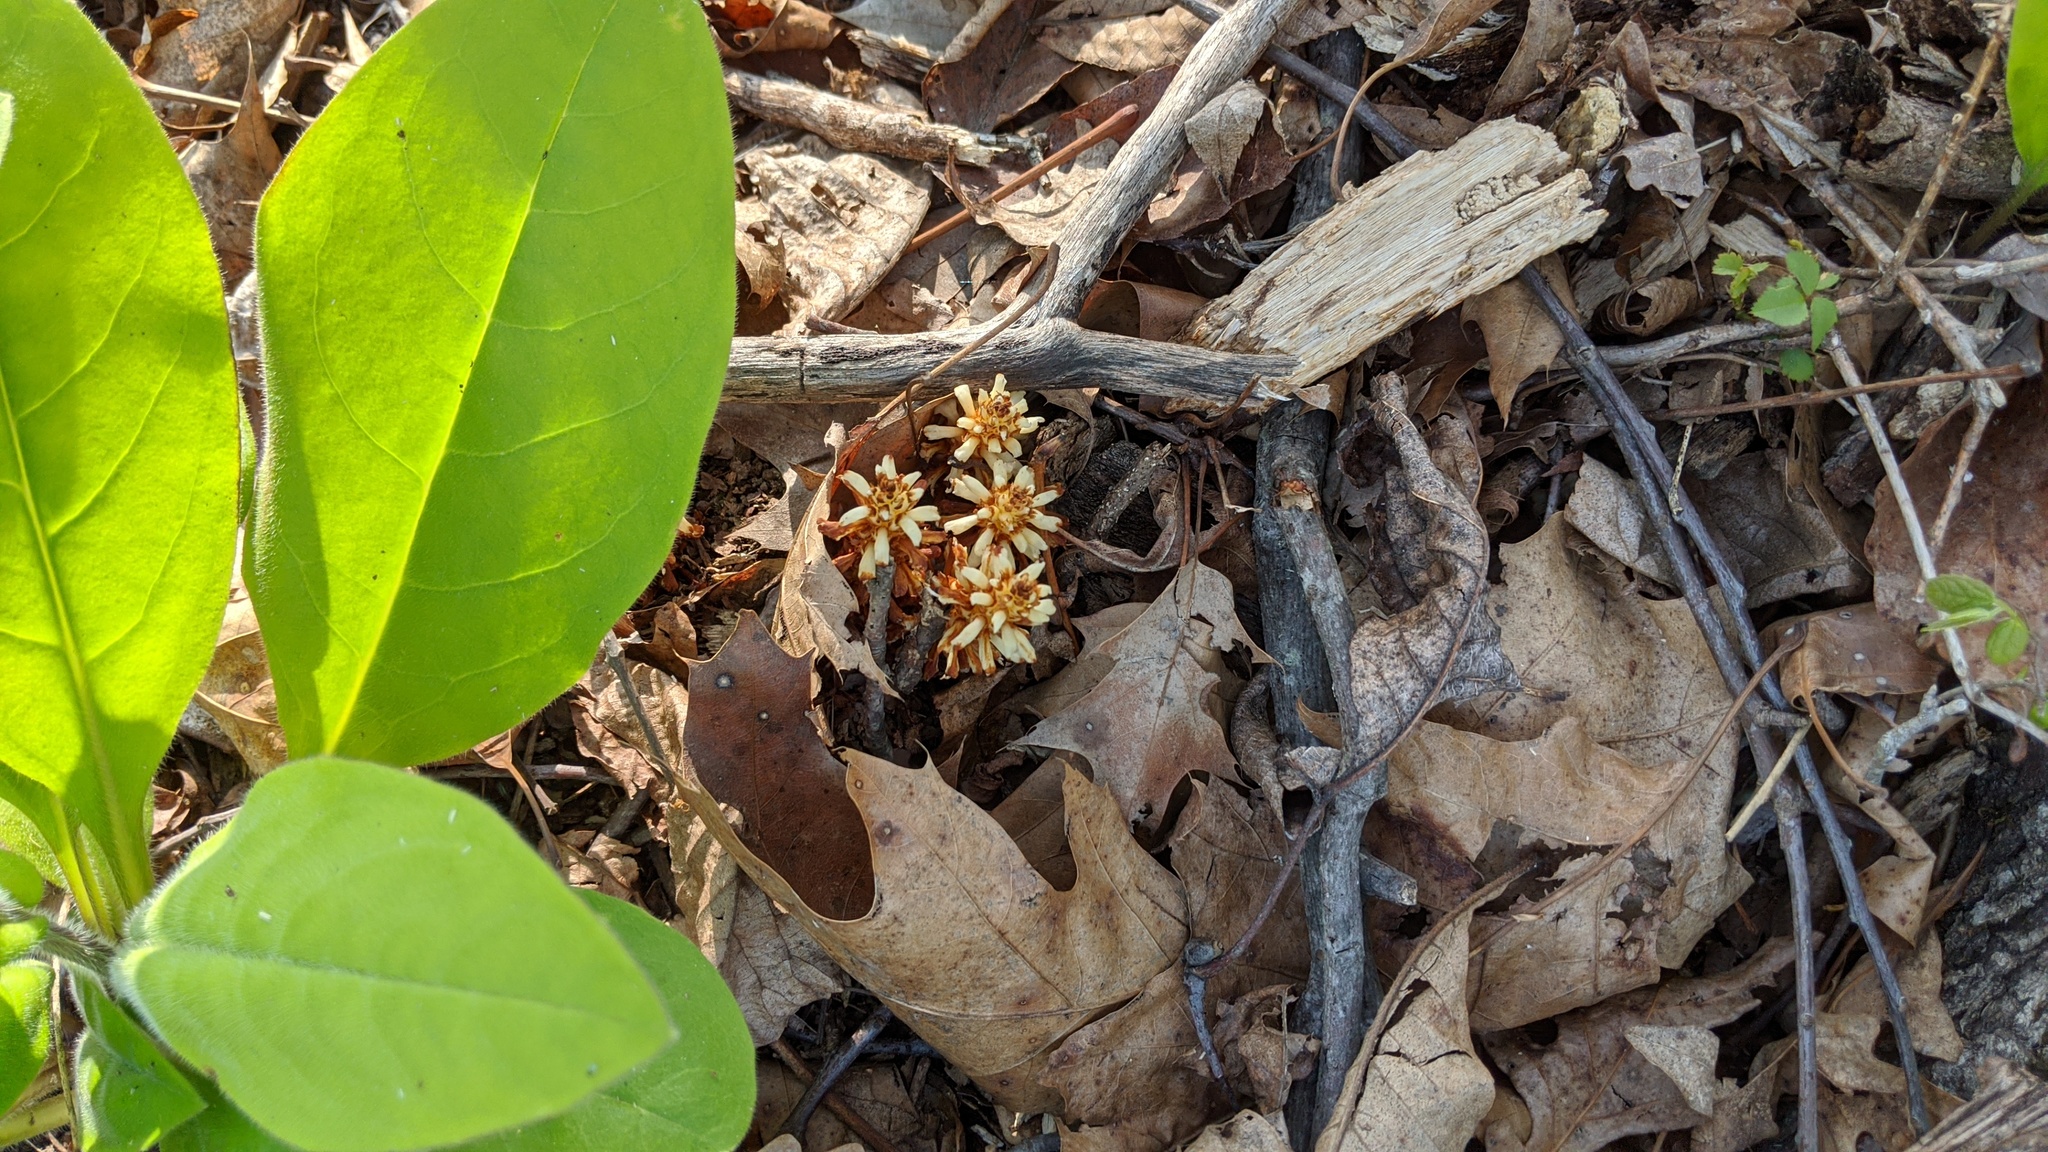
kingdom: Plantae
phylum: Tracheophyta
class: Magnoliopsida
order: Lamiales
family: Orobanchaceae
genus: Conopholis
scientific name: Conopholis americana
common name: American cancer-root
